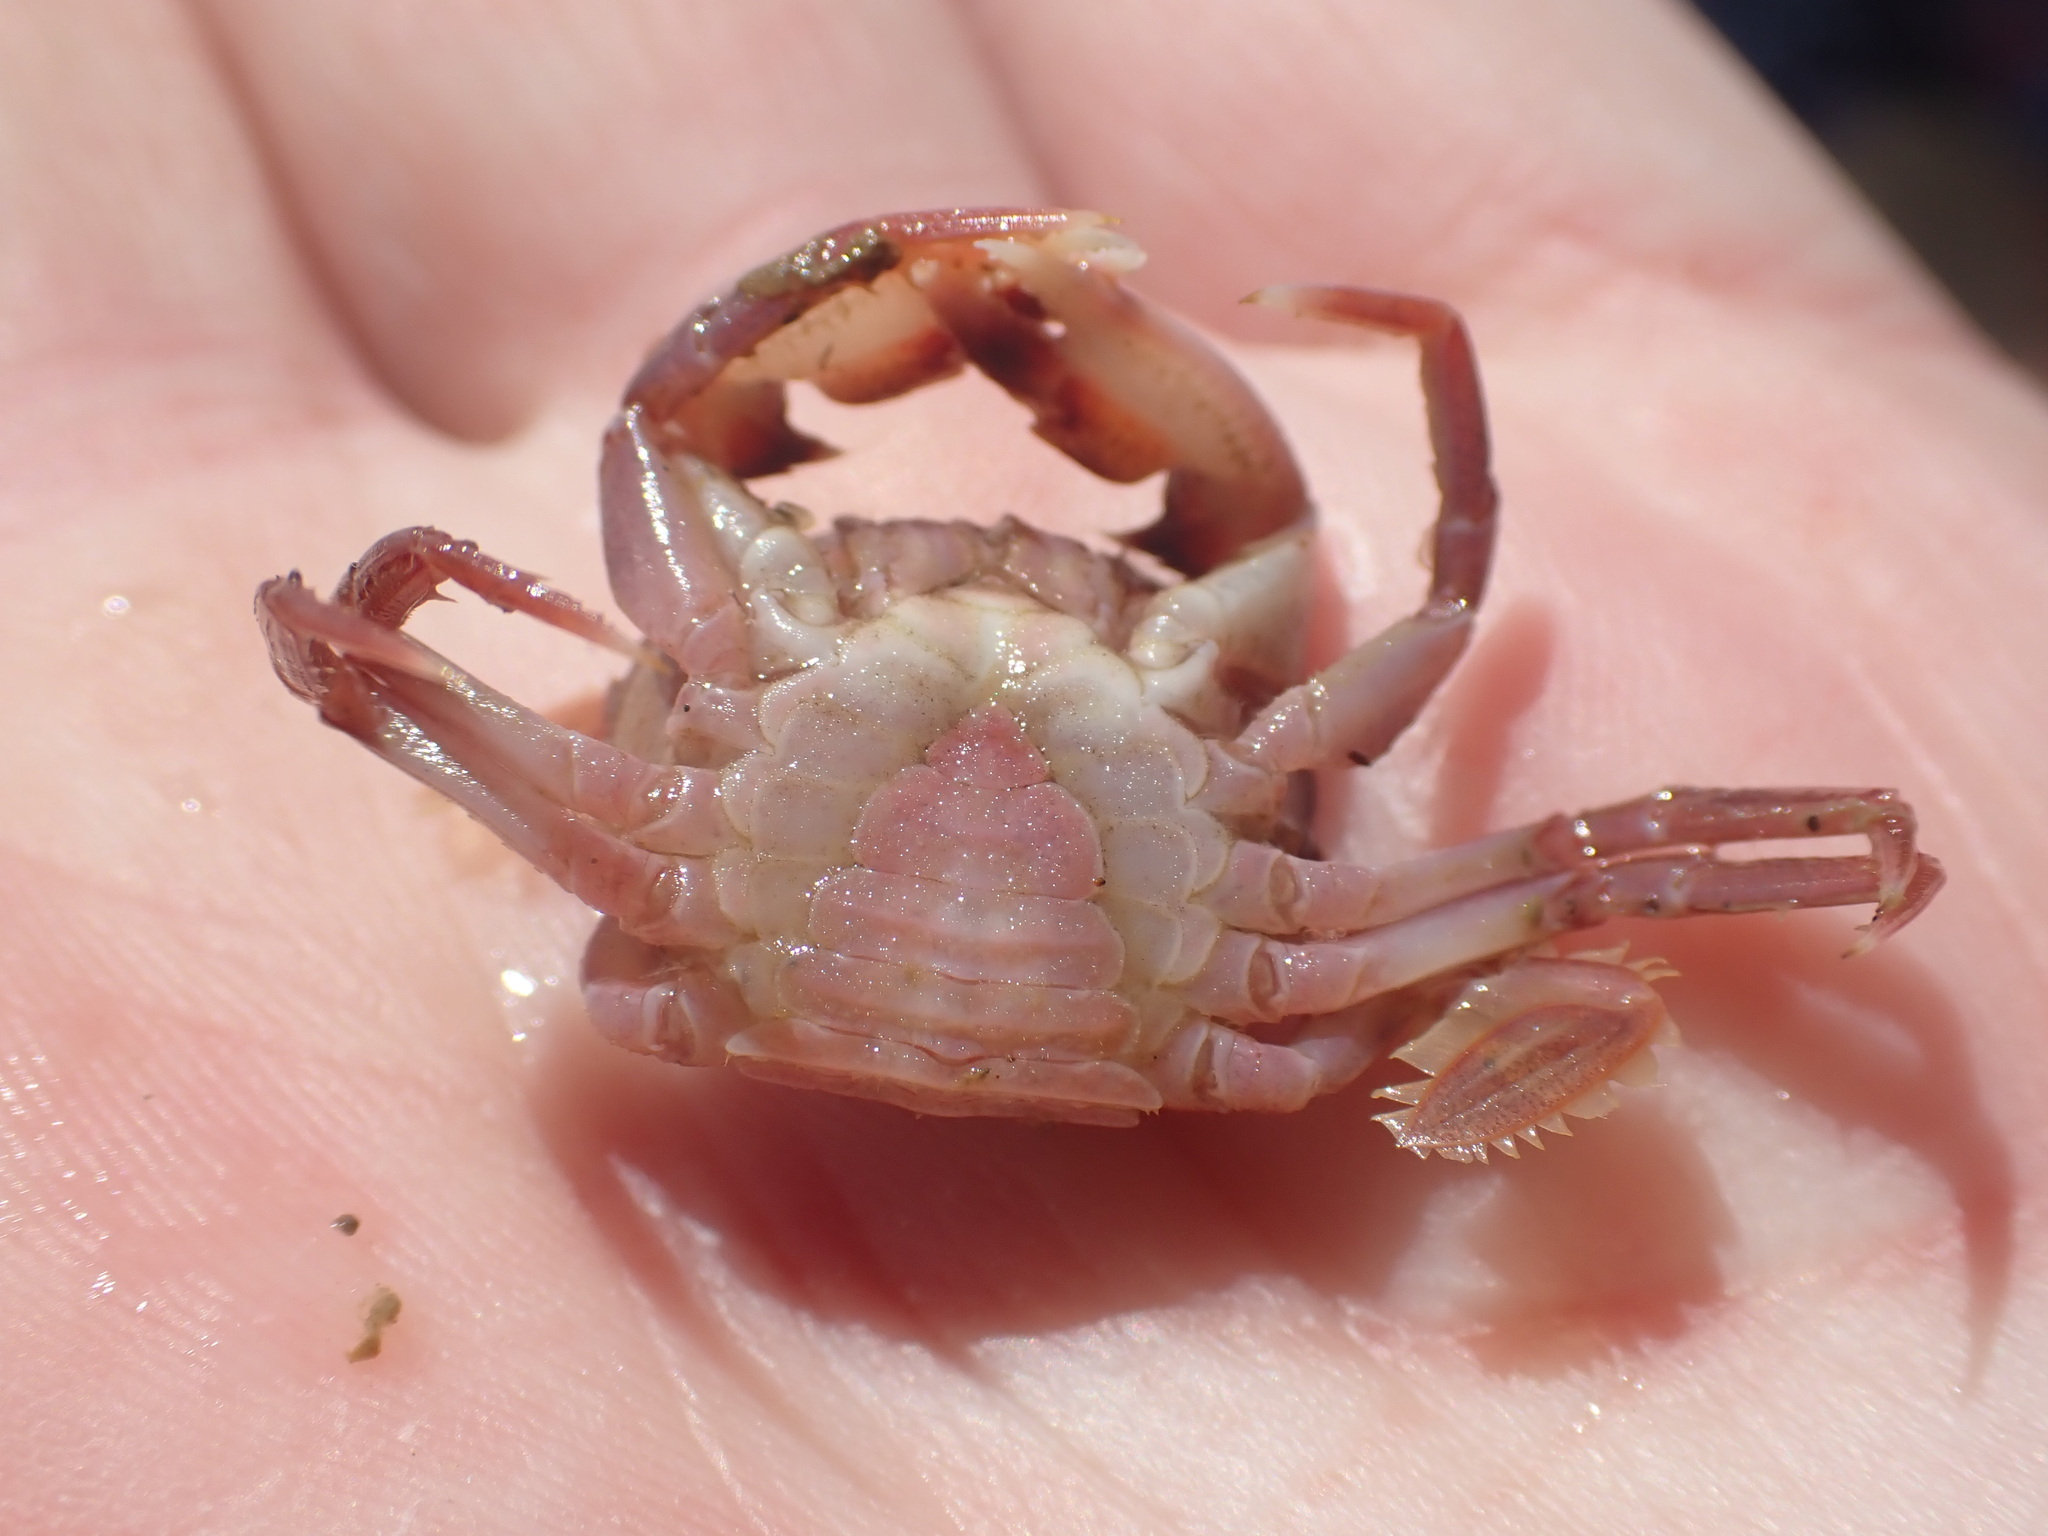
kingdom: Animalia
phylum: Arthropoda
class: Malacostraca
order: Decapoda
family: Geryonidae
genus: Nectocarcinus
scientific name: Nectocarcinus antarcticus
